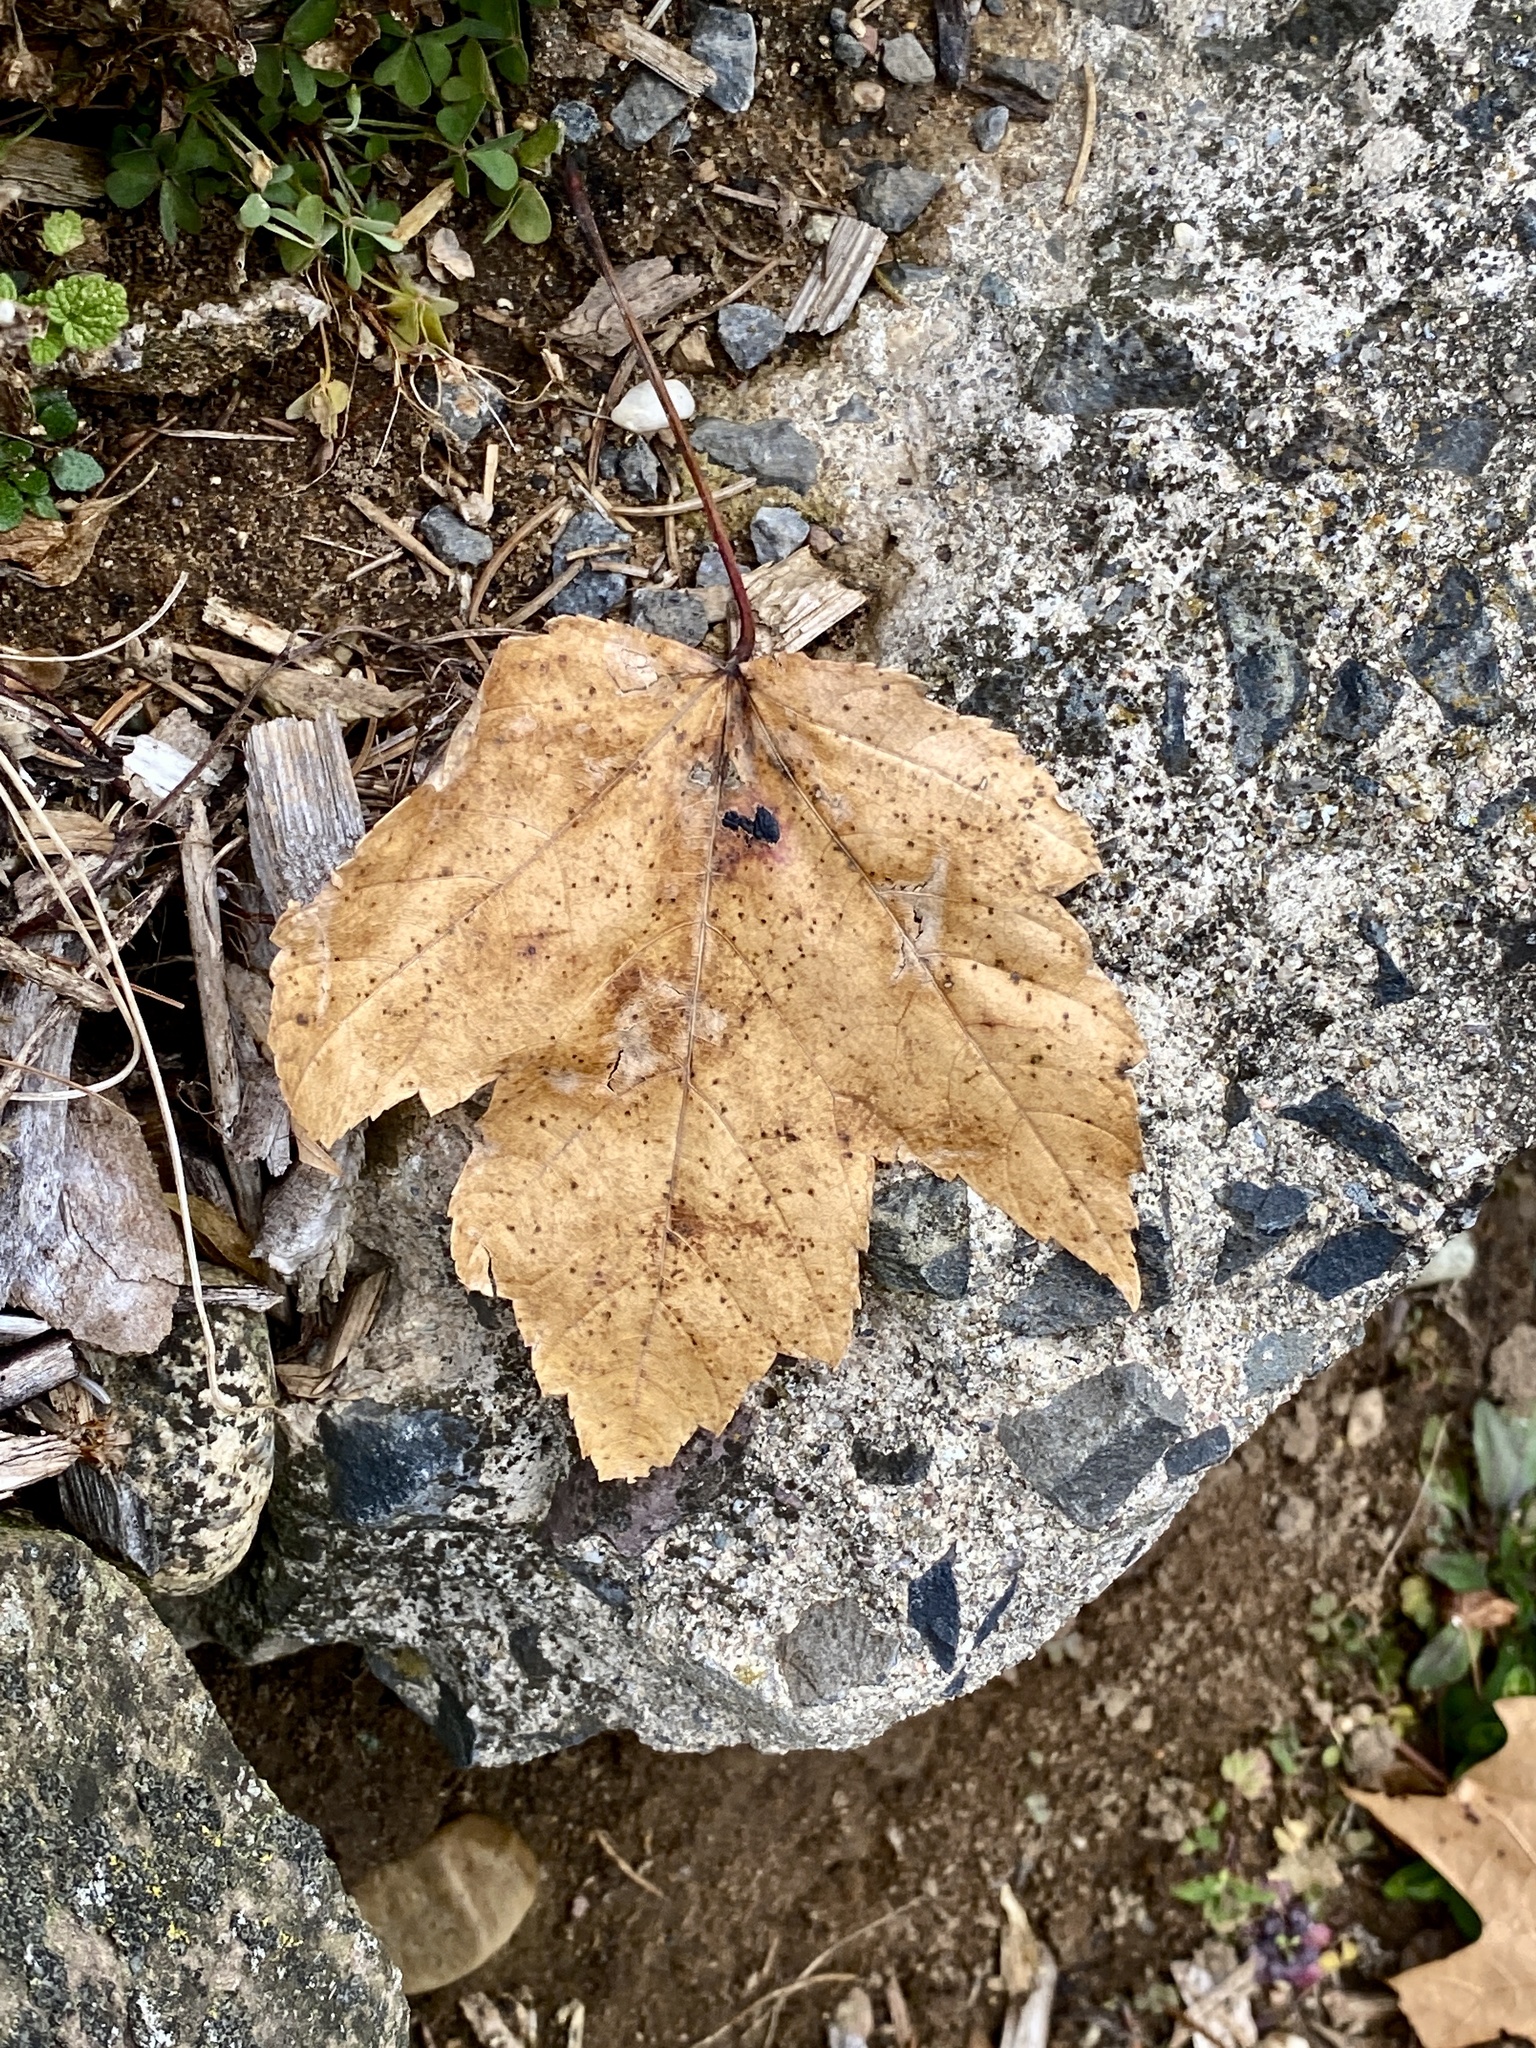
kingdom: Plantae
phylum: Tracheophyta
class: Magnoliopsida
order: Sapindales
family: Sapindaceae
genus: Acer
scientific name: Acer rubrum
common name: Red maple
